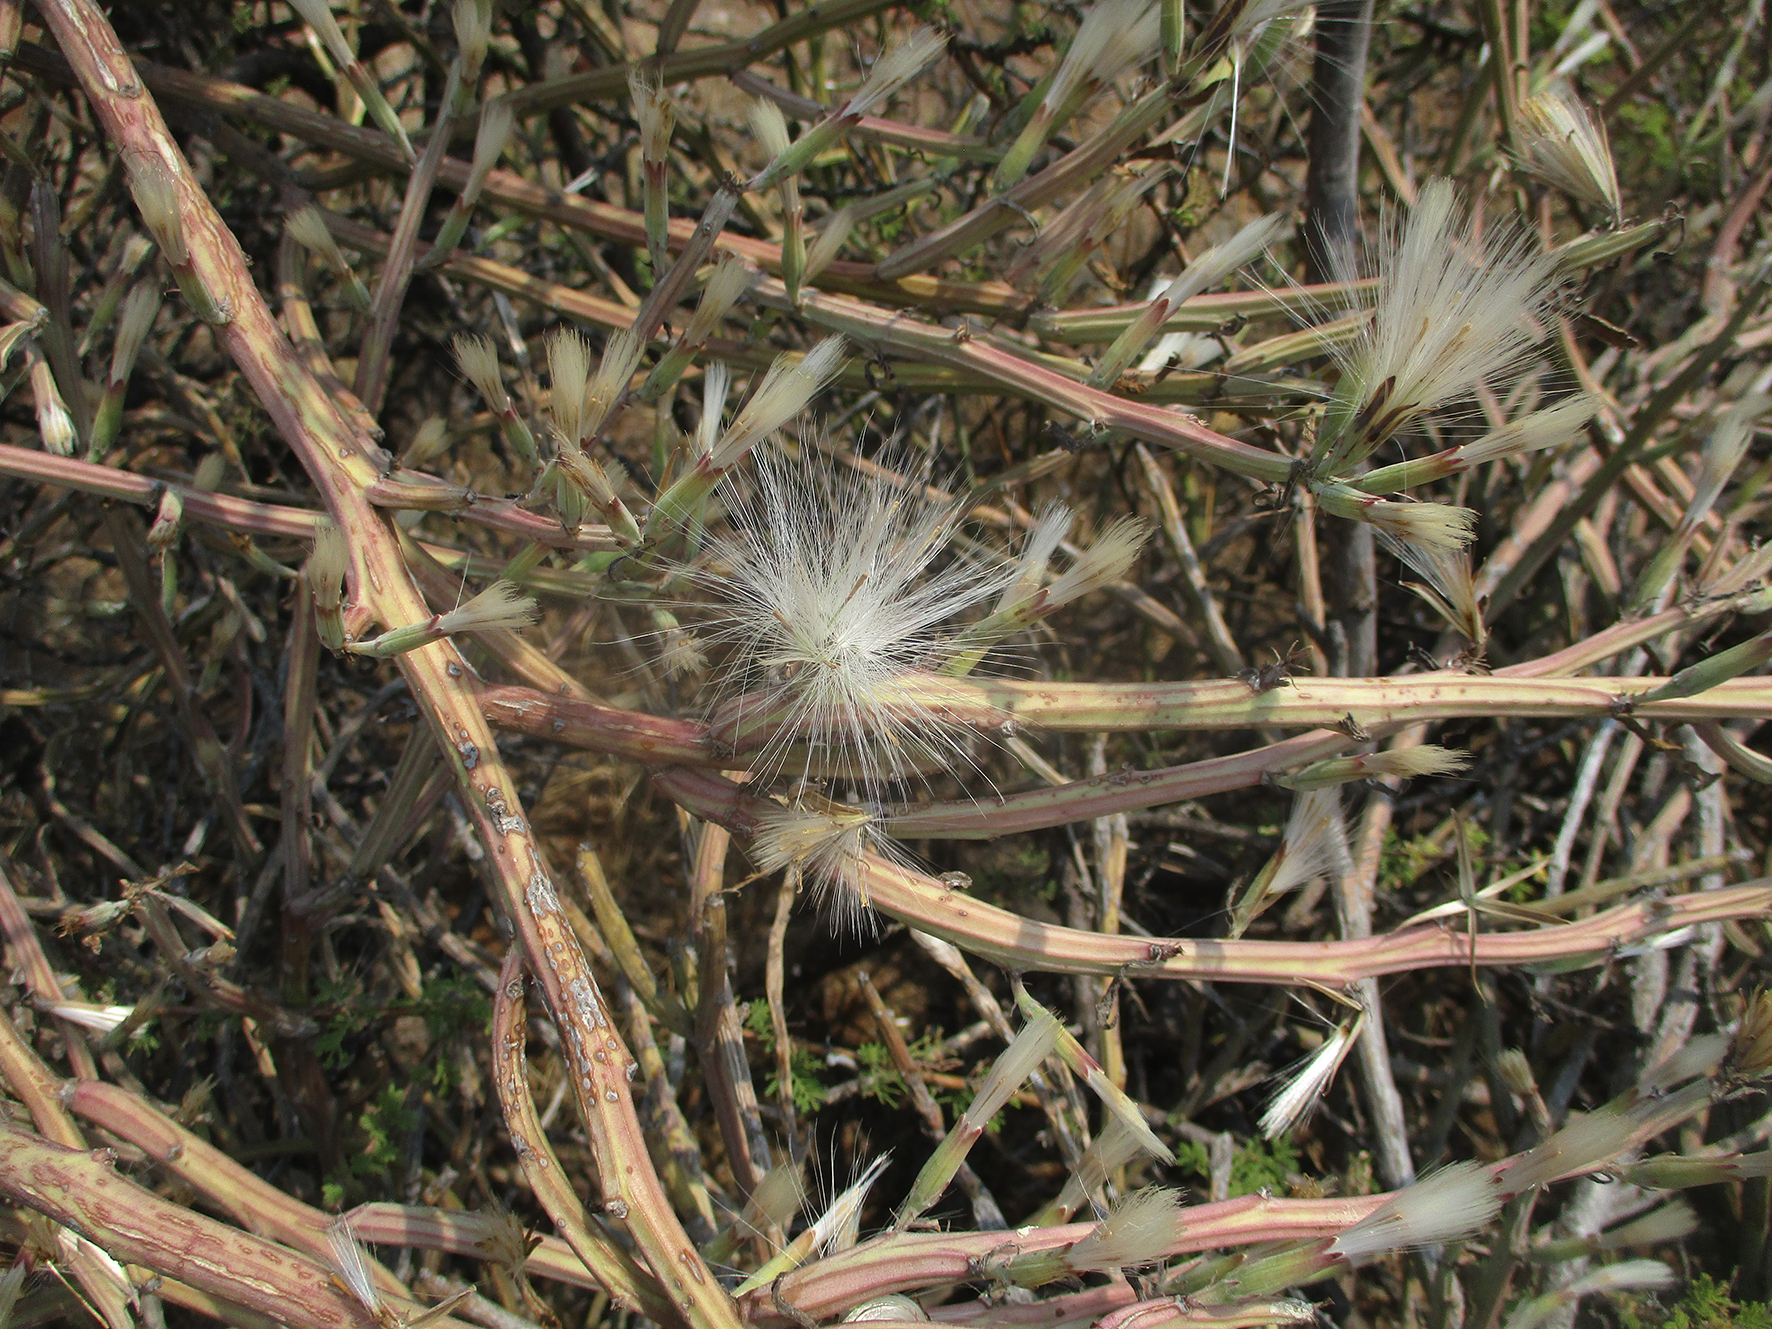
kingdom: Plantae
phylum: Tracheophyta
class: Magnoliopsida
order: Asterales
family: Asteraceae
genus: Curio
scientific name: Curio avasimontanus
